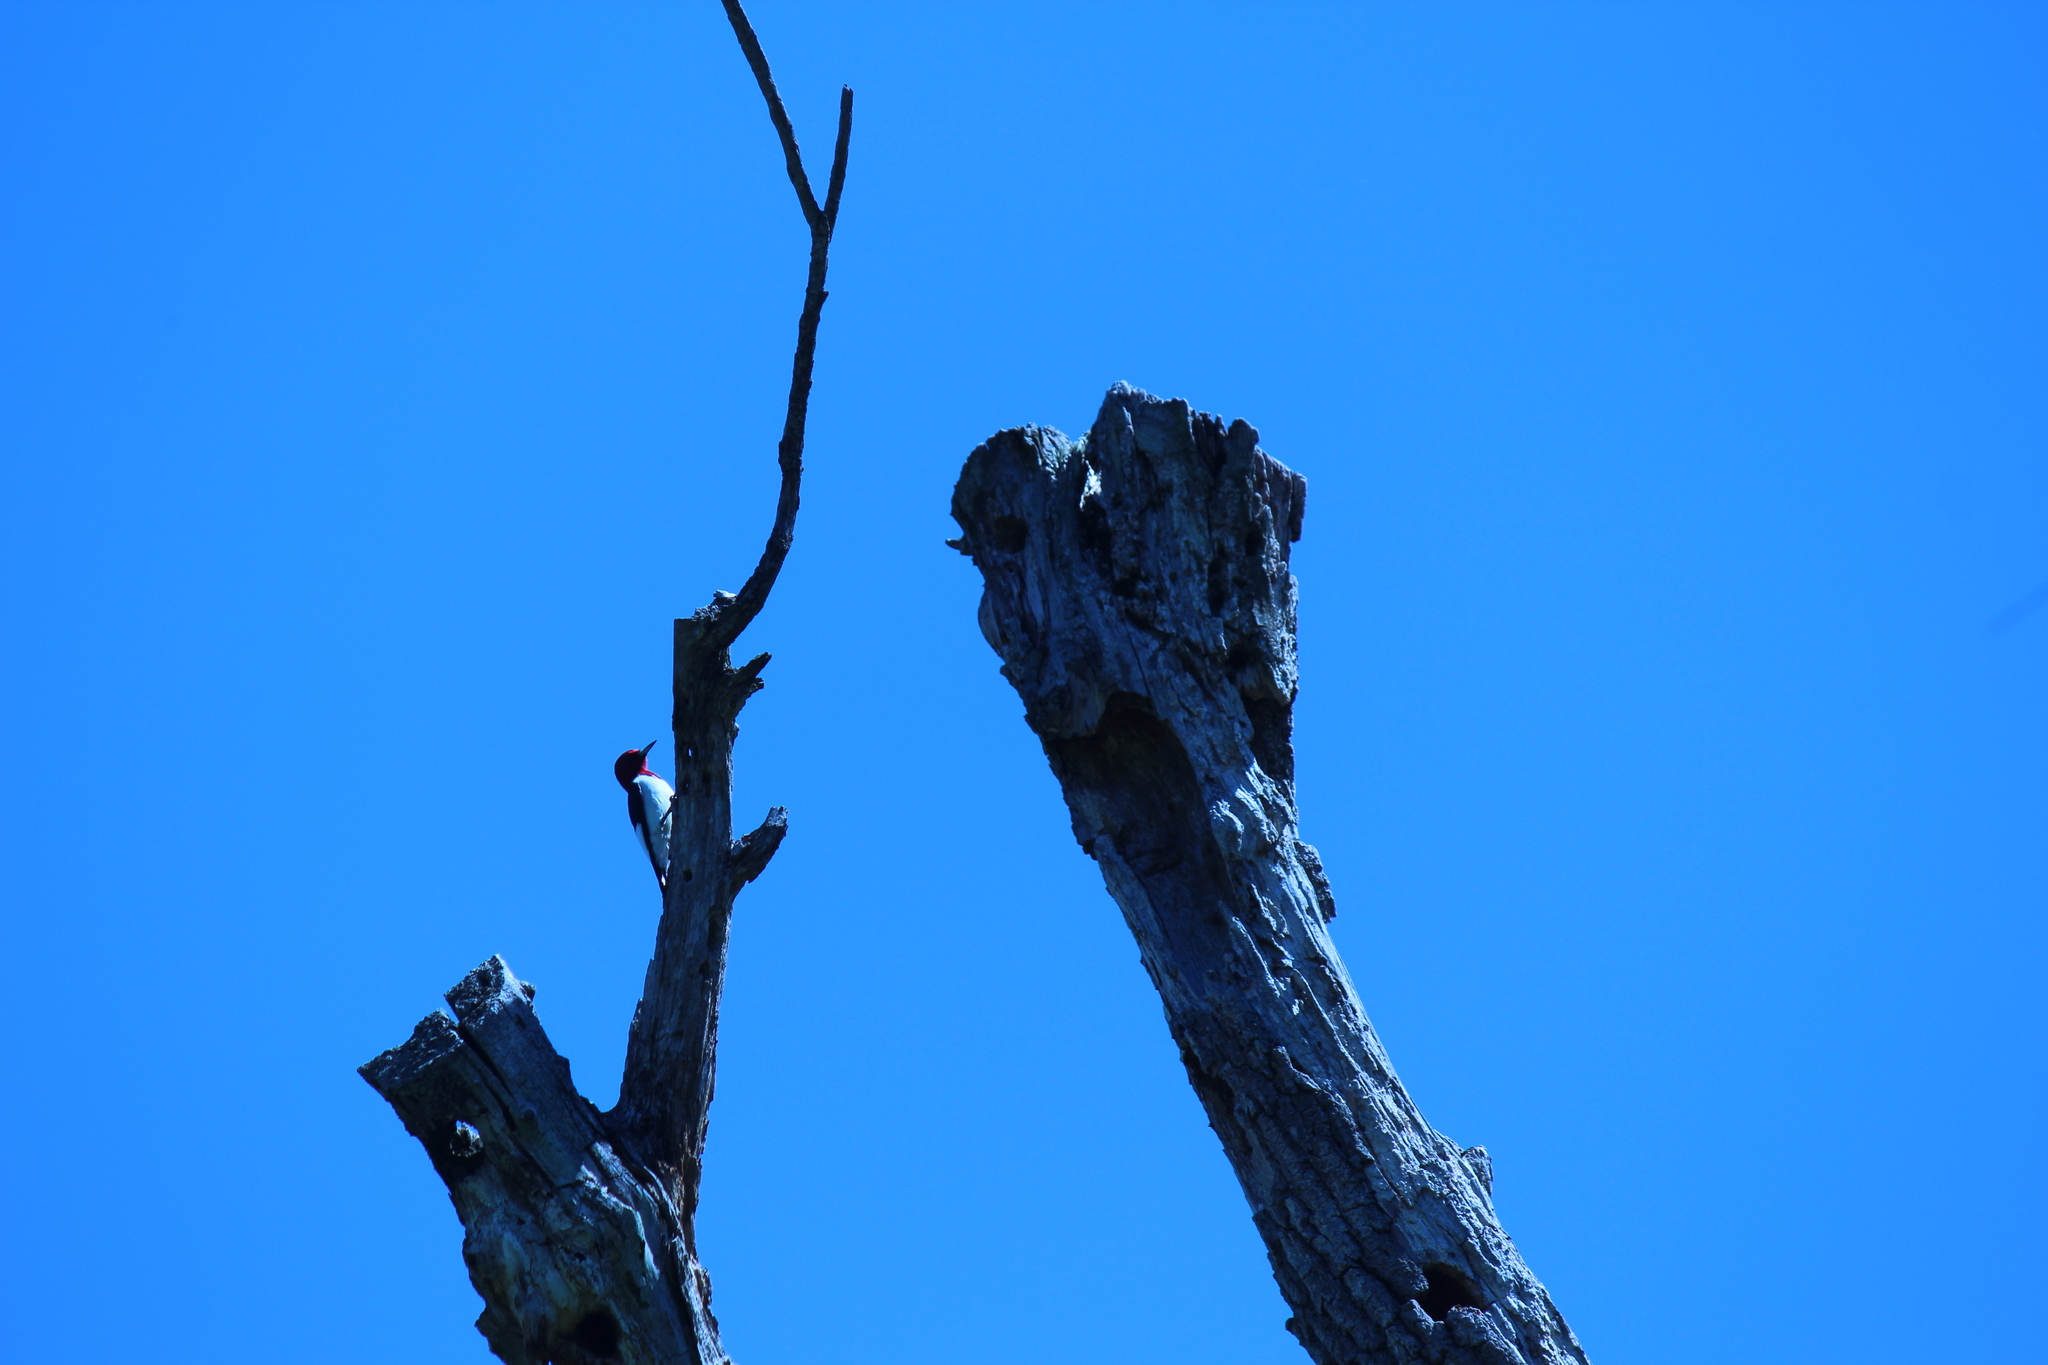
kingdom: Animalia
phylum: Chordata
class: Aves
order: Piciformes
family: Picidae
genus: Melanerpes
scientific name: Melanerpes erythrocephalus
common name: Red-headed woodpecker
